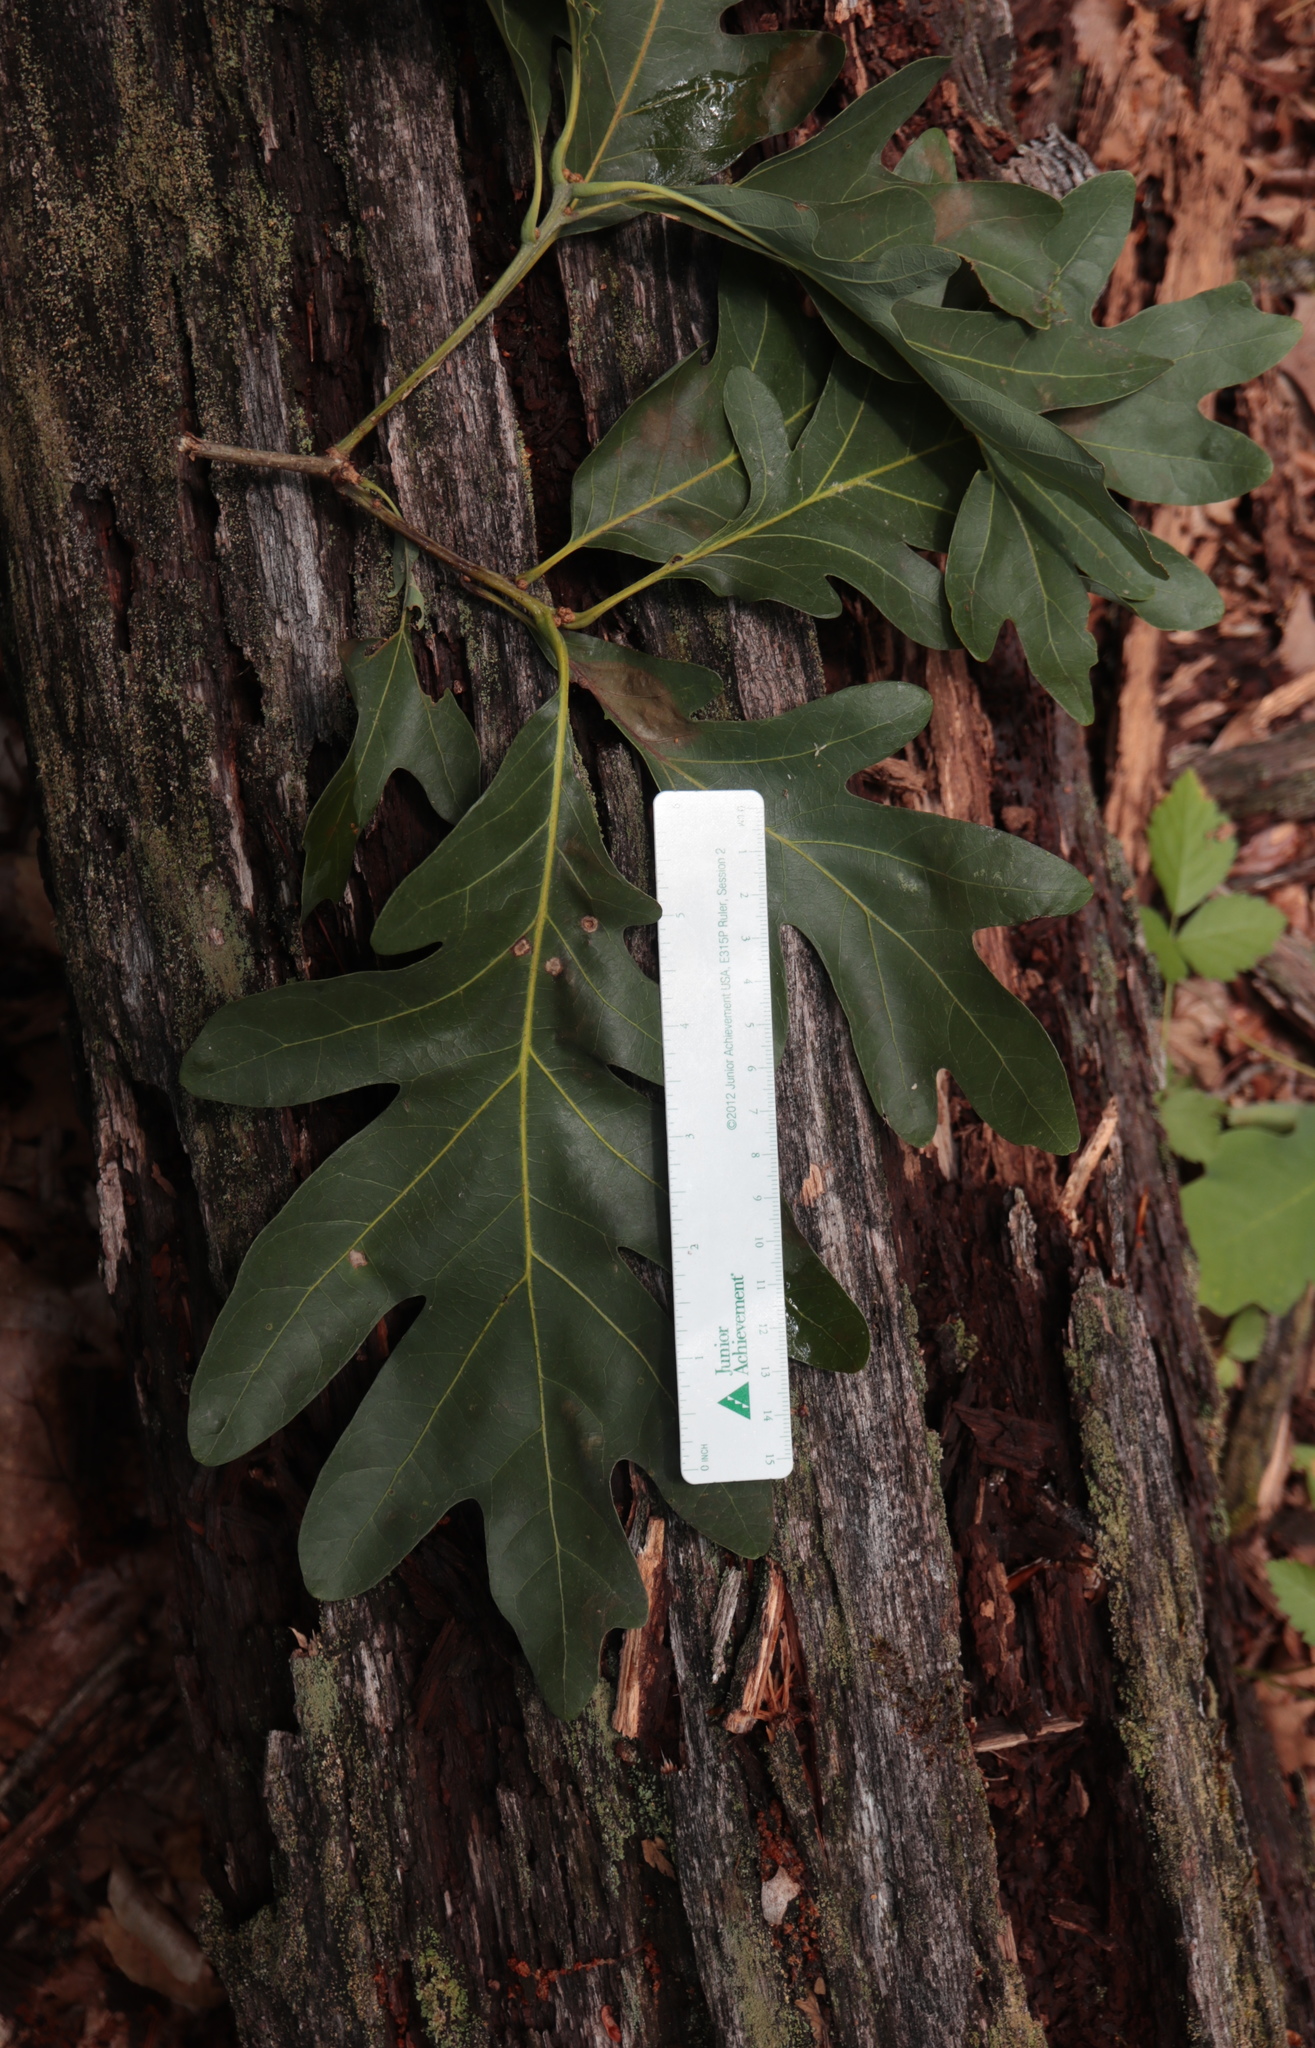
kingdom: Plantae
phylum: Tracheophyta
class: Magnoliopsida
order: Fagales
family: Fagaceae
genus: Quercus
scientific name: Quercus alba
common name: White oak
